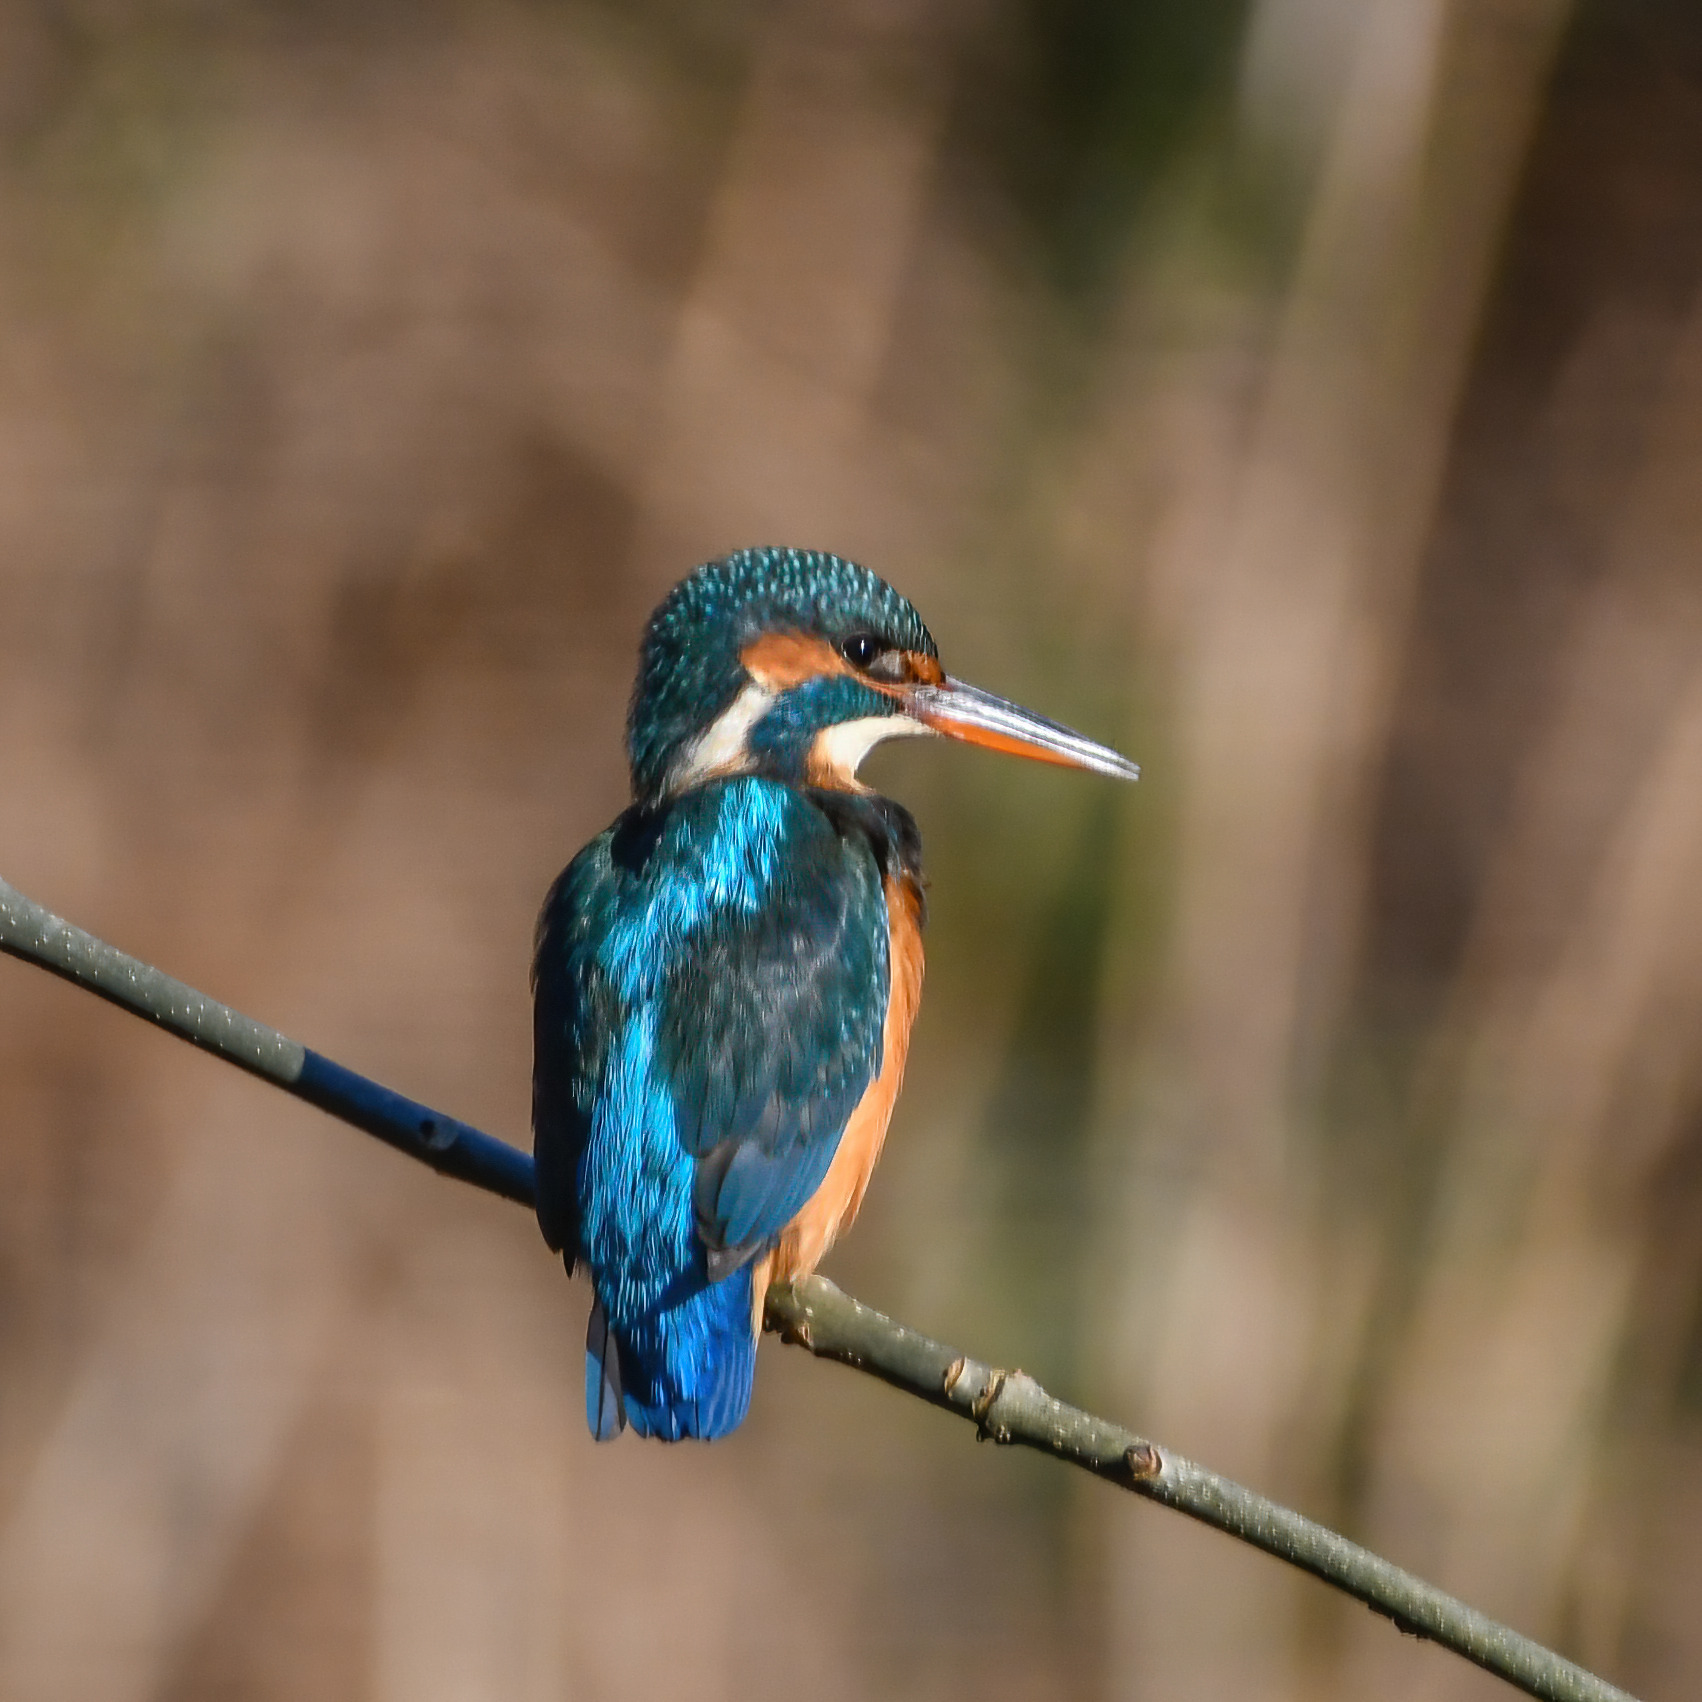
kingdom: Animalia
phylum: Chordata
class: Aves
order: Coraciiformes
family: Alcedinidae
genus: Alcedo
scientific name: Alcedo atthis
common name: Common kingfisher
